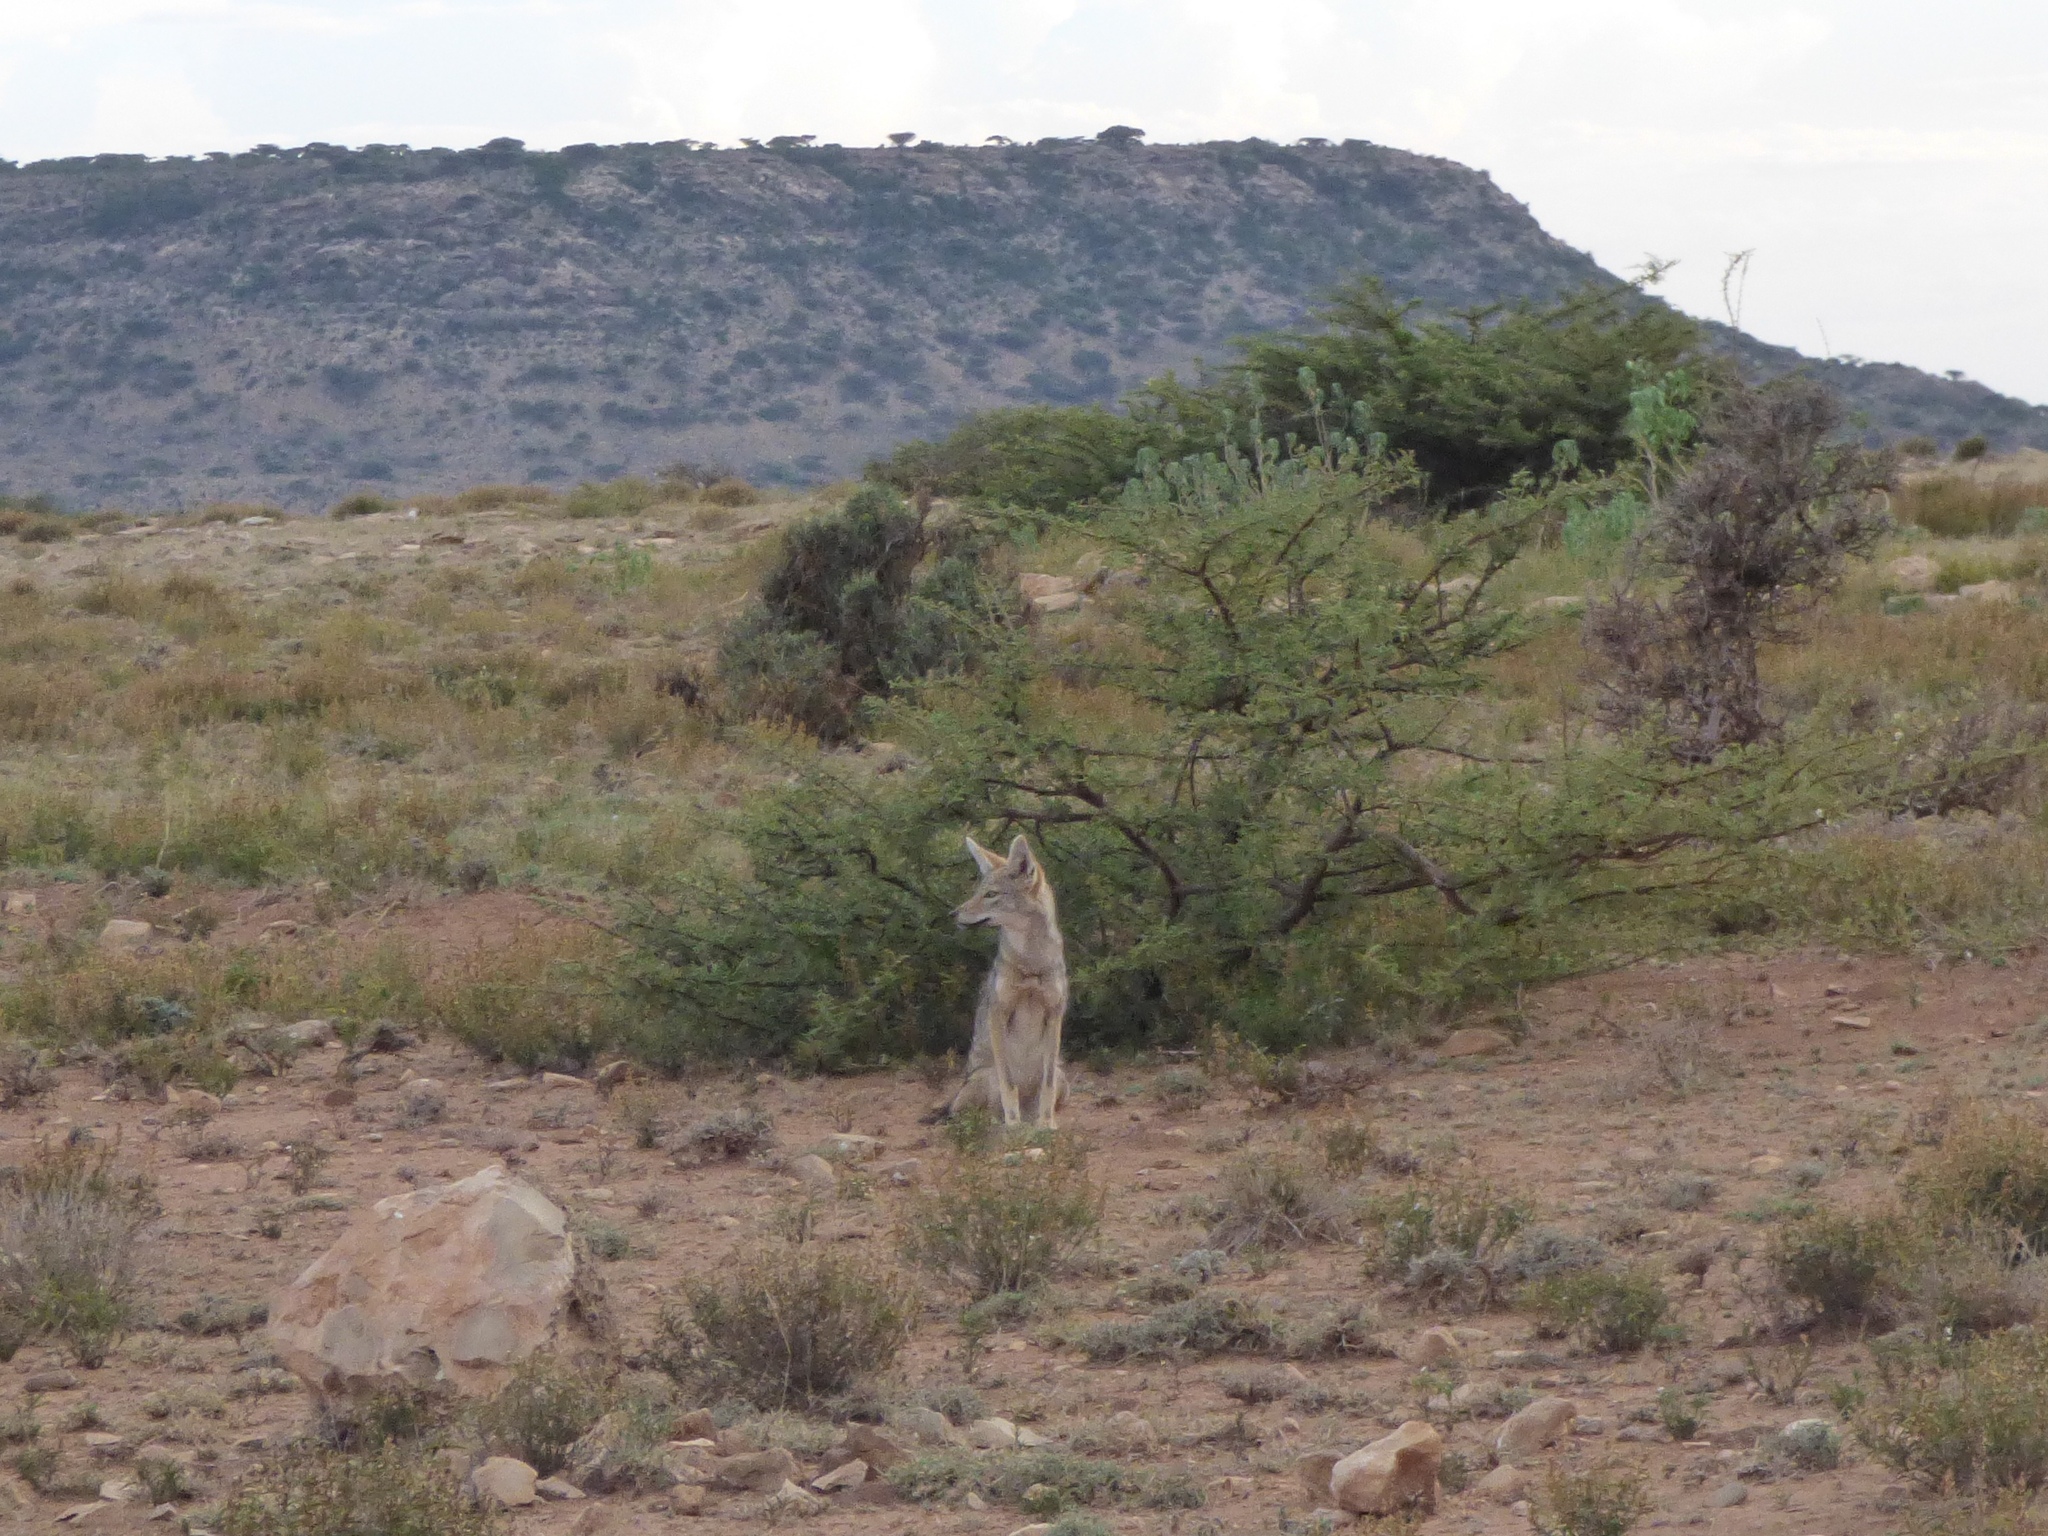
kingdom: Animalia
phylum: Chordata
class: Mammalia
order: Carnivora
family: Canidae
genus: Canis
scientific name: Canis lupaster
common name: African golden wolf
